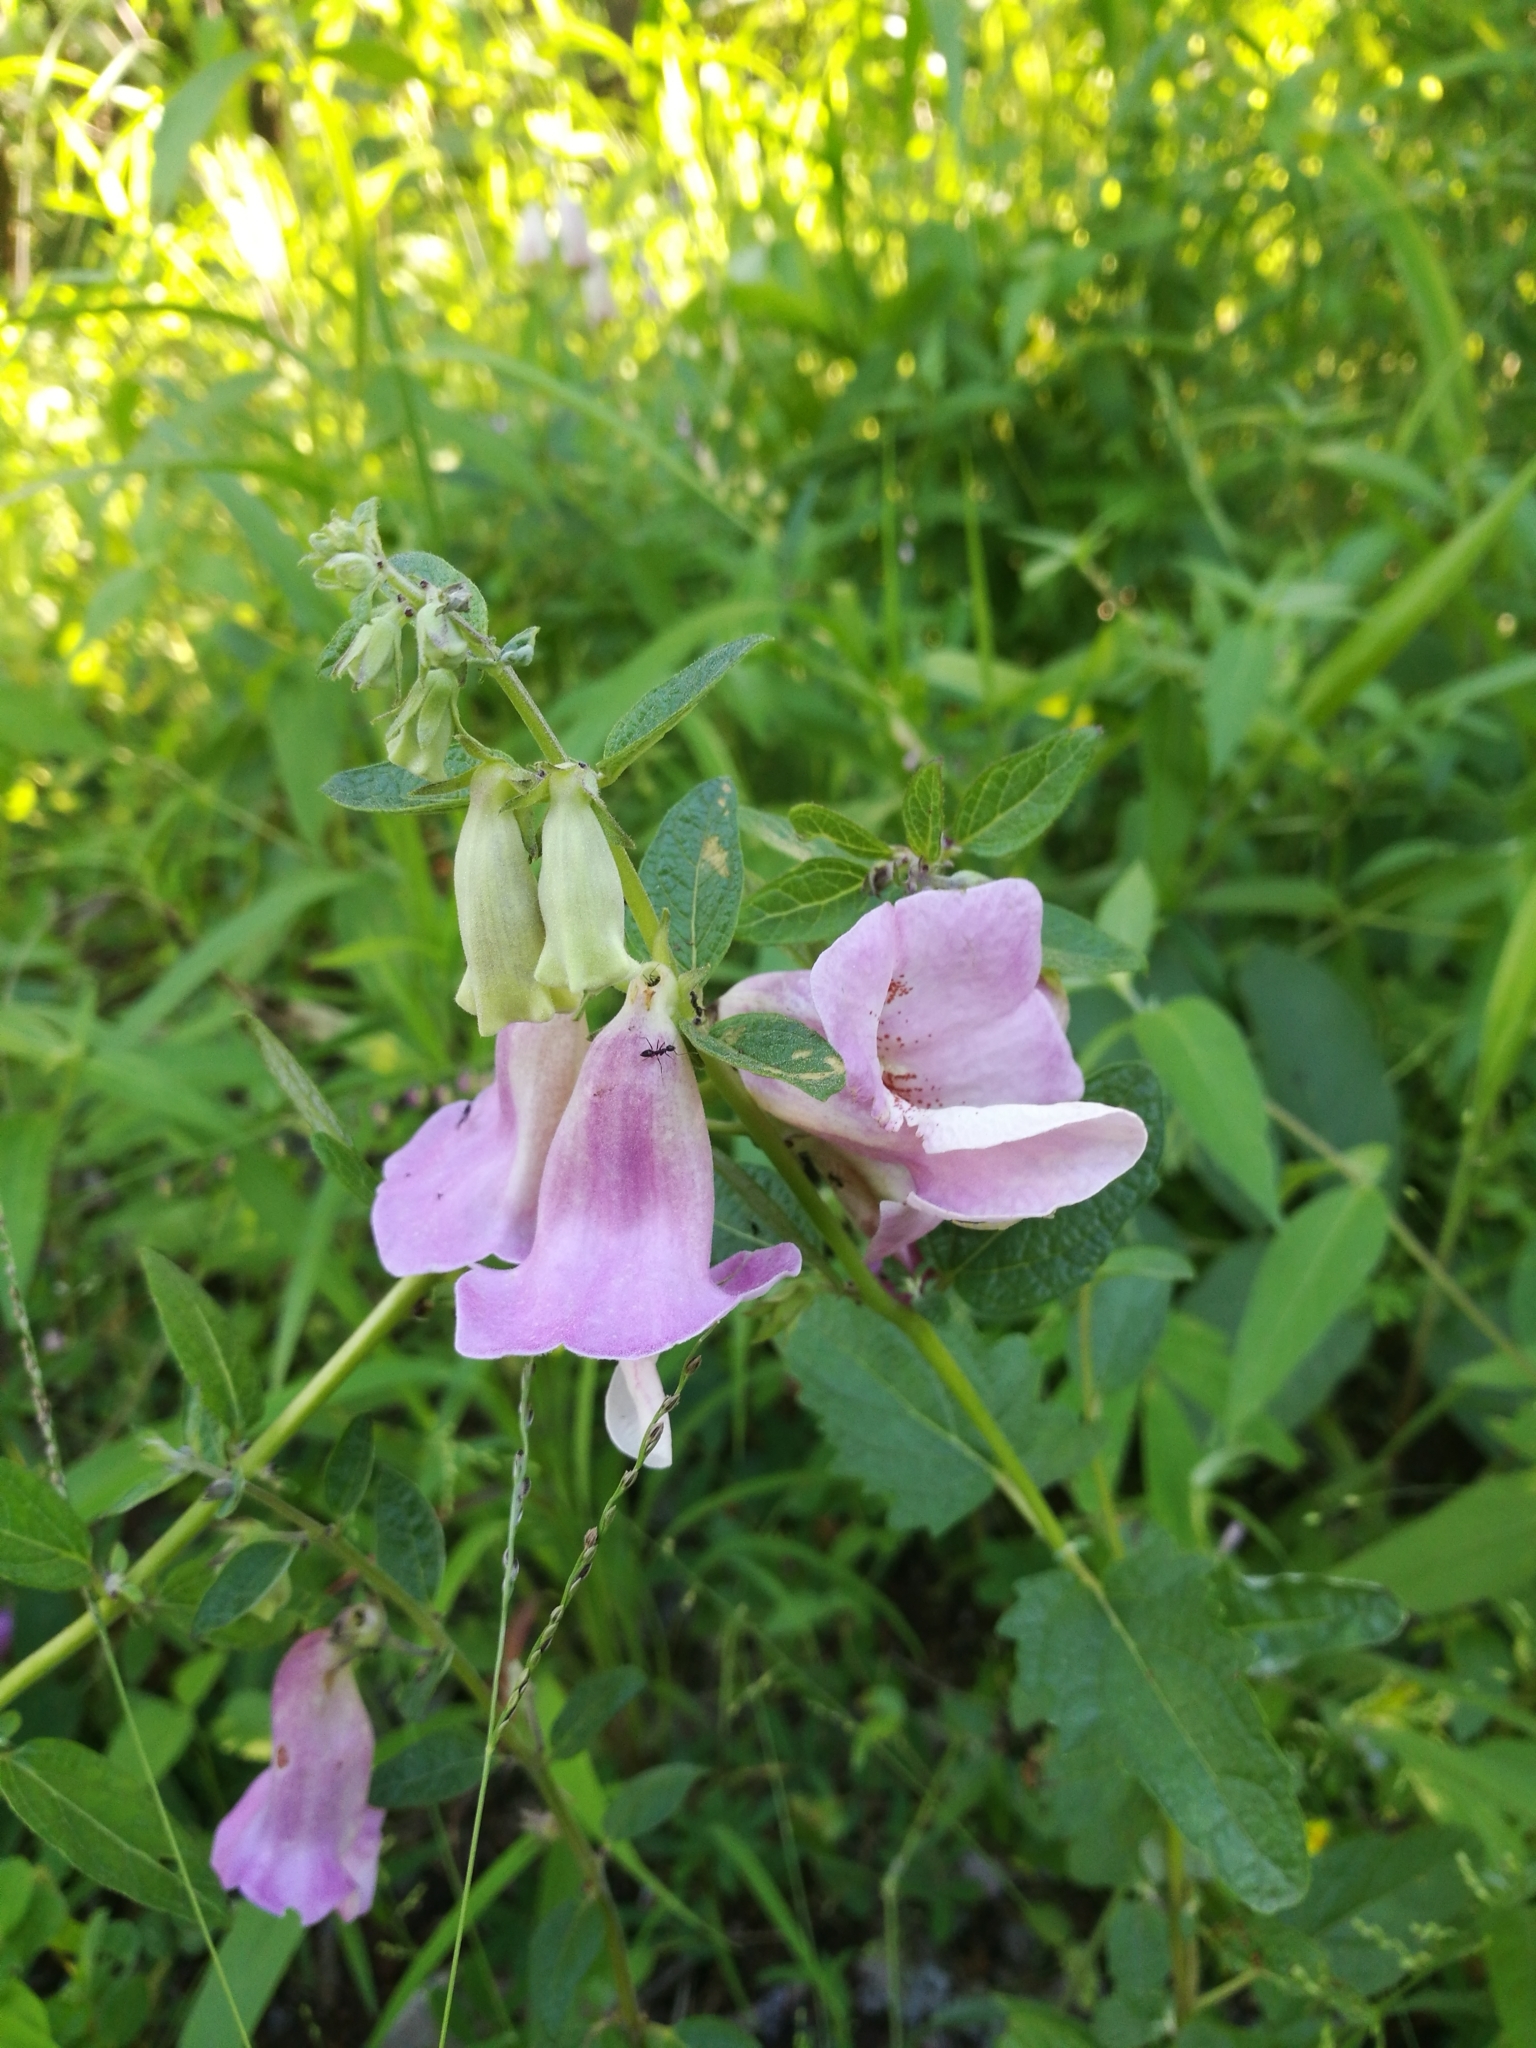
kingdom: Plantae
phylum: Tracheophyta
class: Magnoliopsida
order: Lamiales
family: Pedaliaceae
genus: Sesamum
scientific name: Sesamum sesamoides
